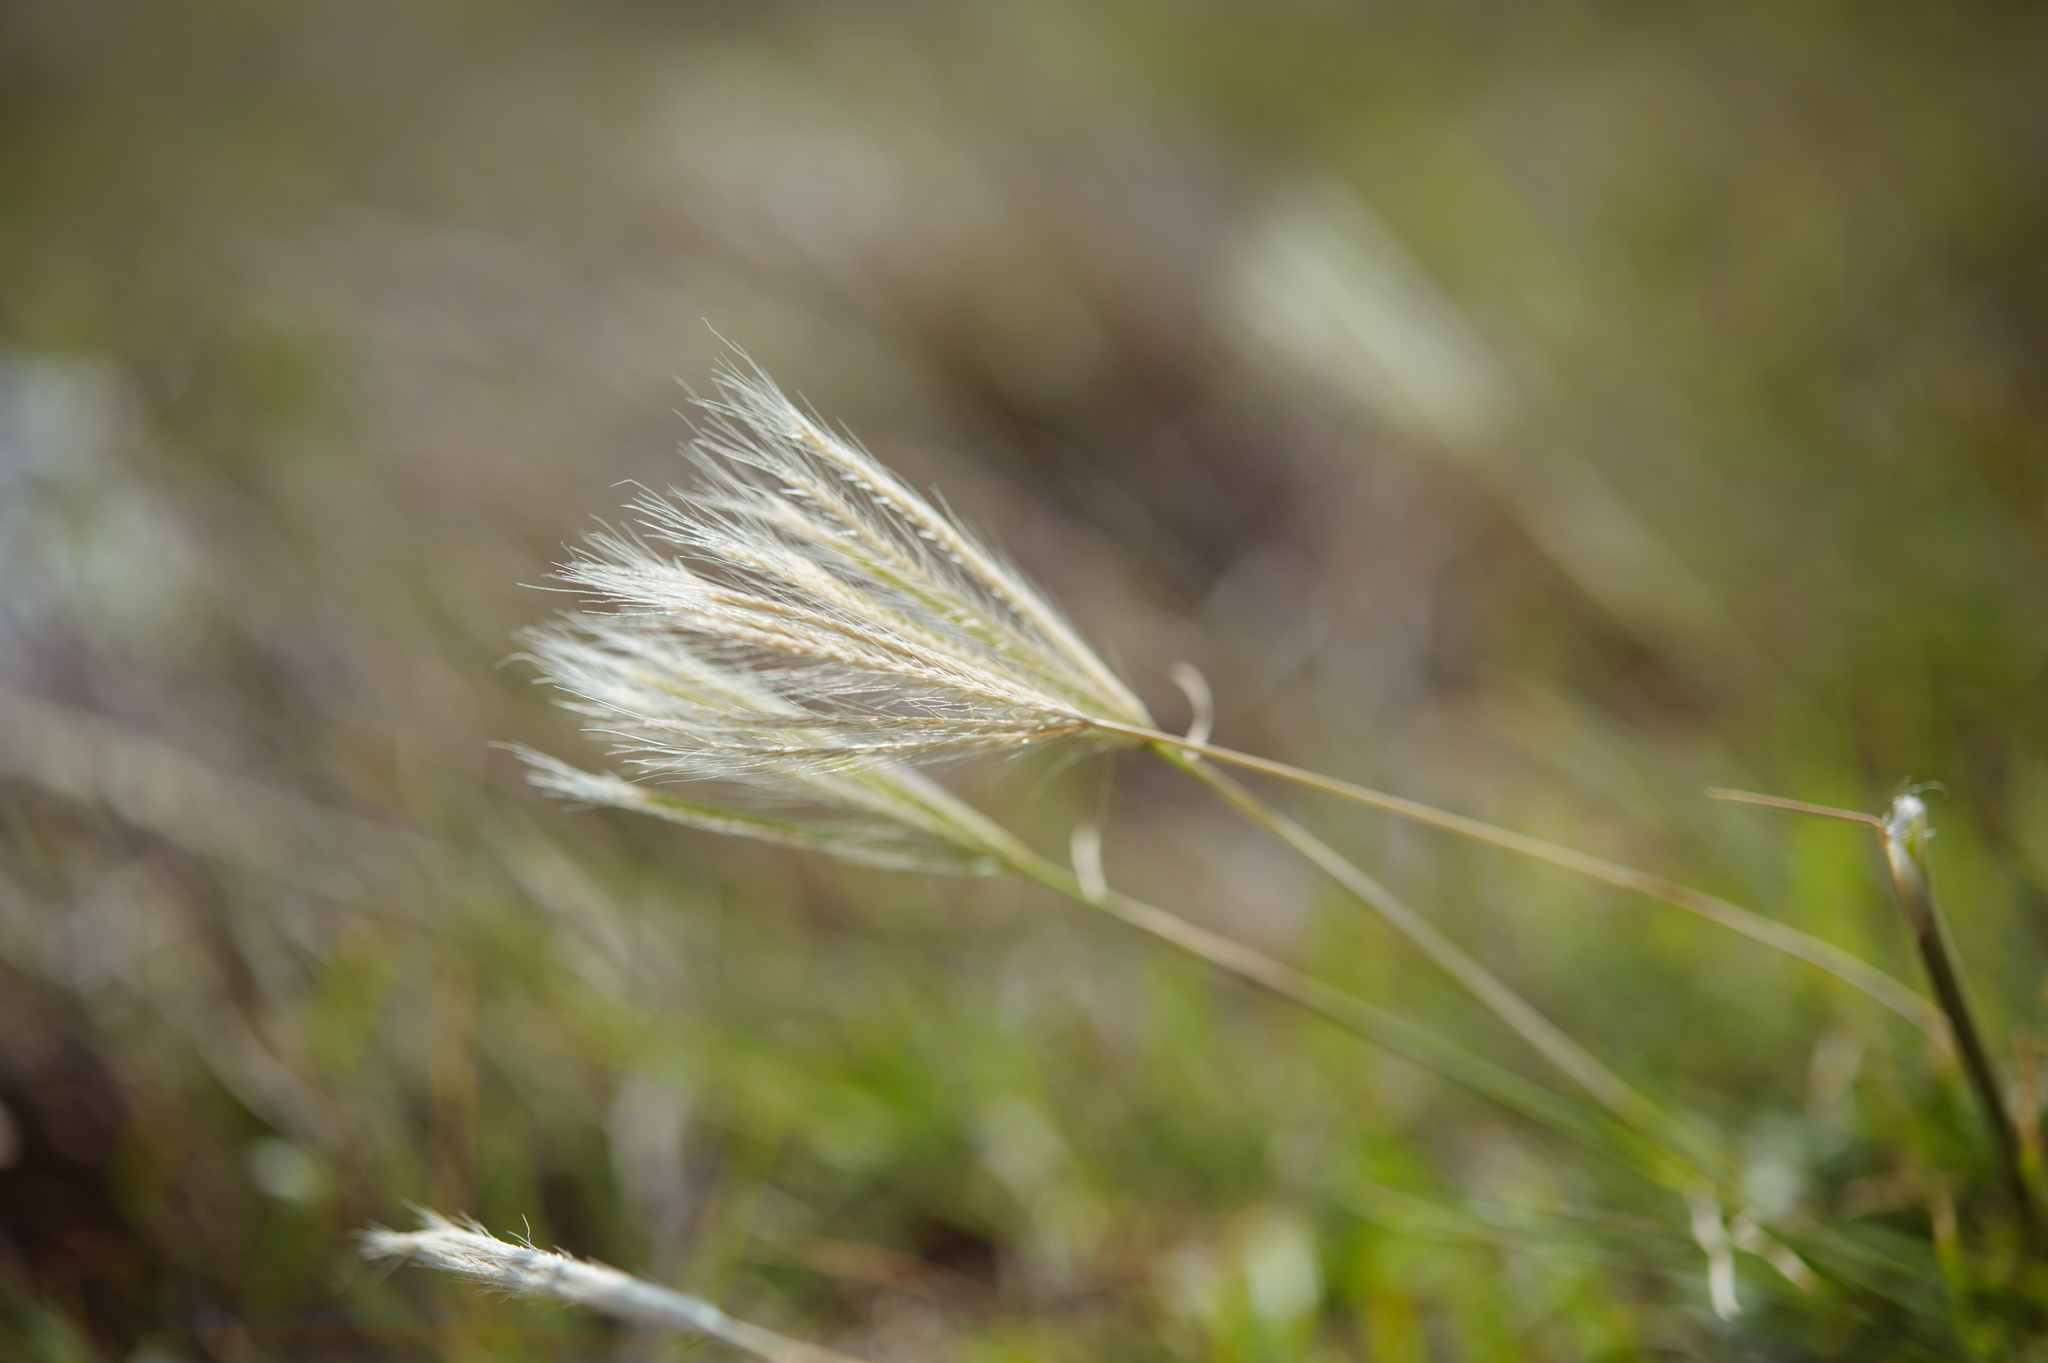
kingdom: Plantae
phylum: Tracheophyta
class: Liliopsida
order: Poales
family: Poaceae
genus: Chloris
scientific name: Chloris divaricata
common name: Spreading windmill grass
